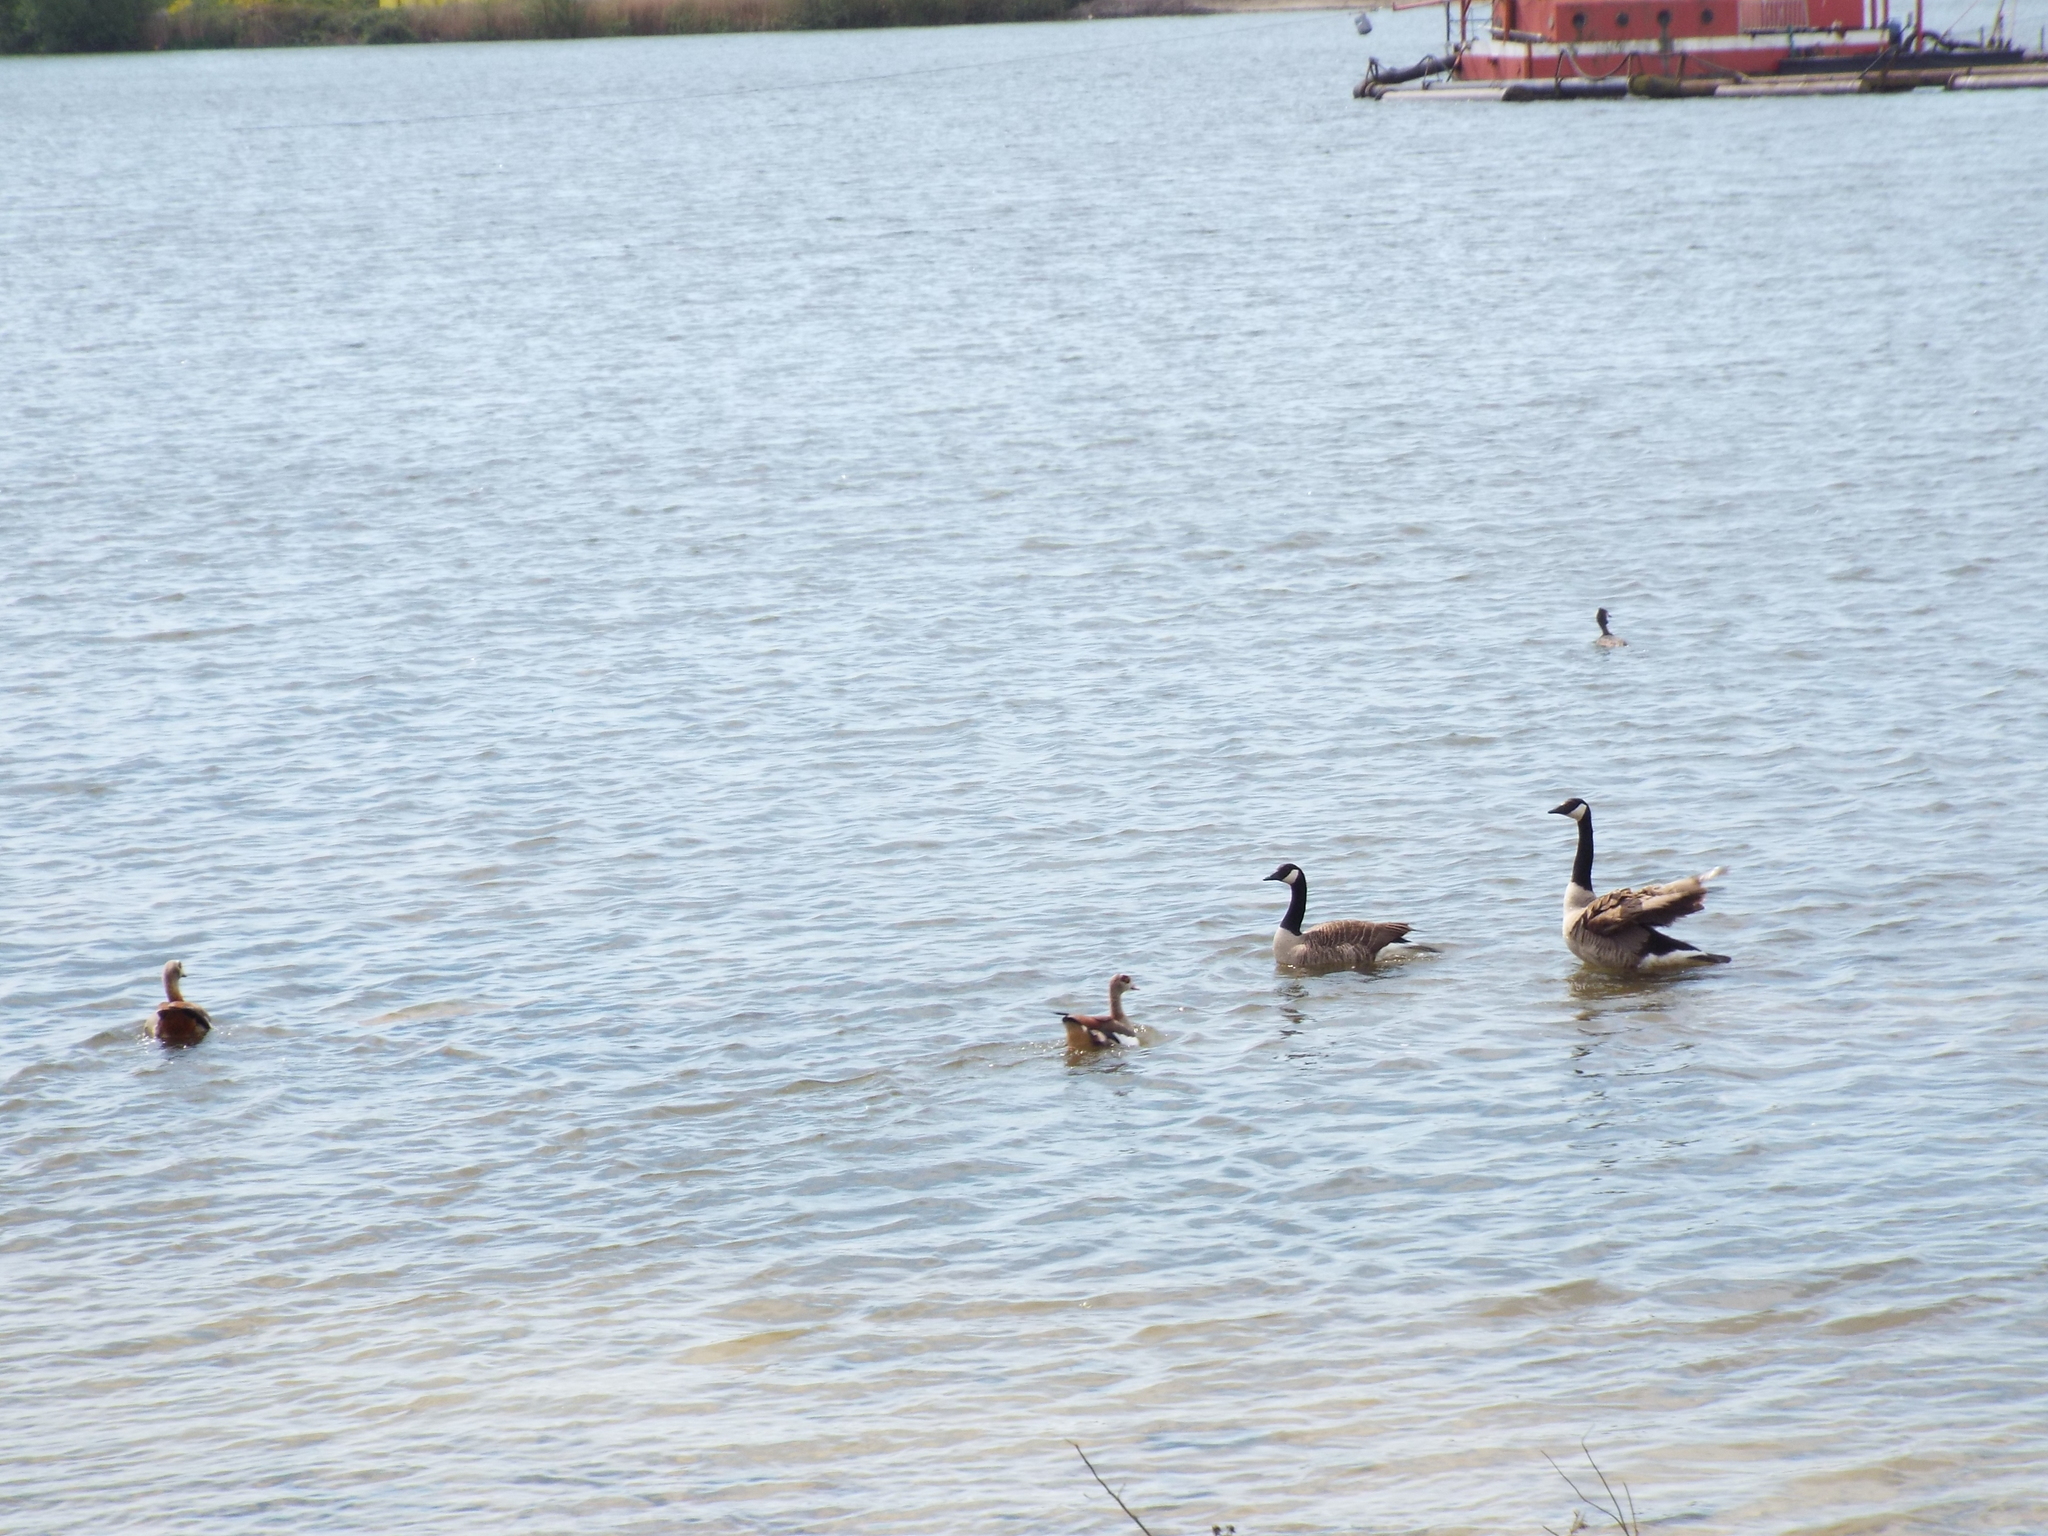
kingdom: Animalia
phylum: Chordata
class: Aves
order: Anseriformes
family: Anatidae
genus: Alopochen
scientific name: Alopochen aegyptiaca
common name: Egyptian goose
